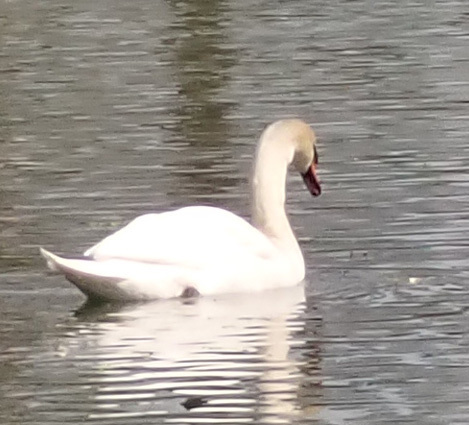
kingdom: Animalia
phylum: Chordata
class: Aves
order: Anseriformes
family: Anatidae
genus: Cygnus
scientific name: Cygnus olor
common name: Mute swan
